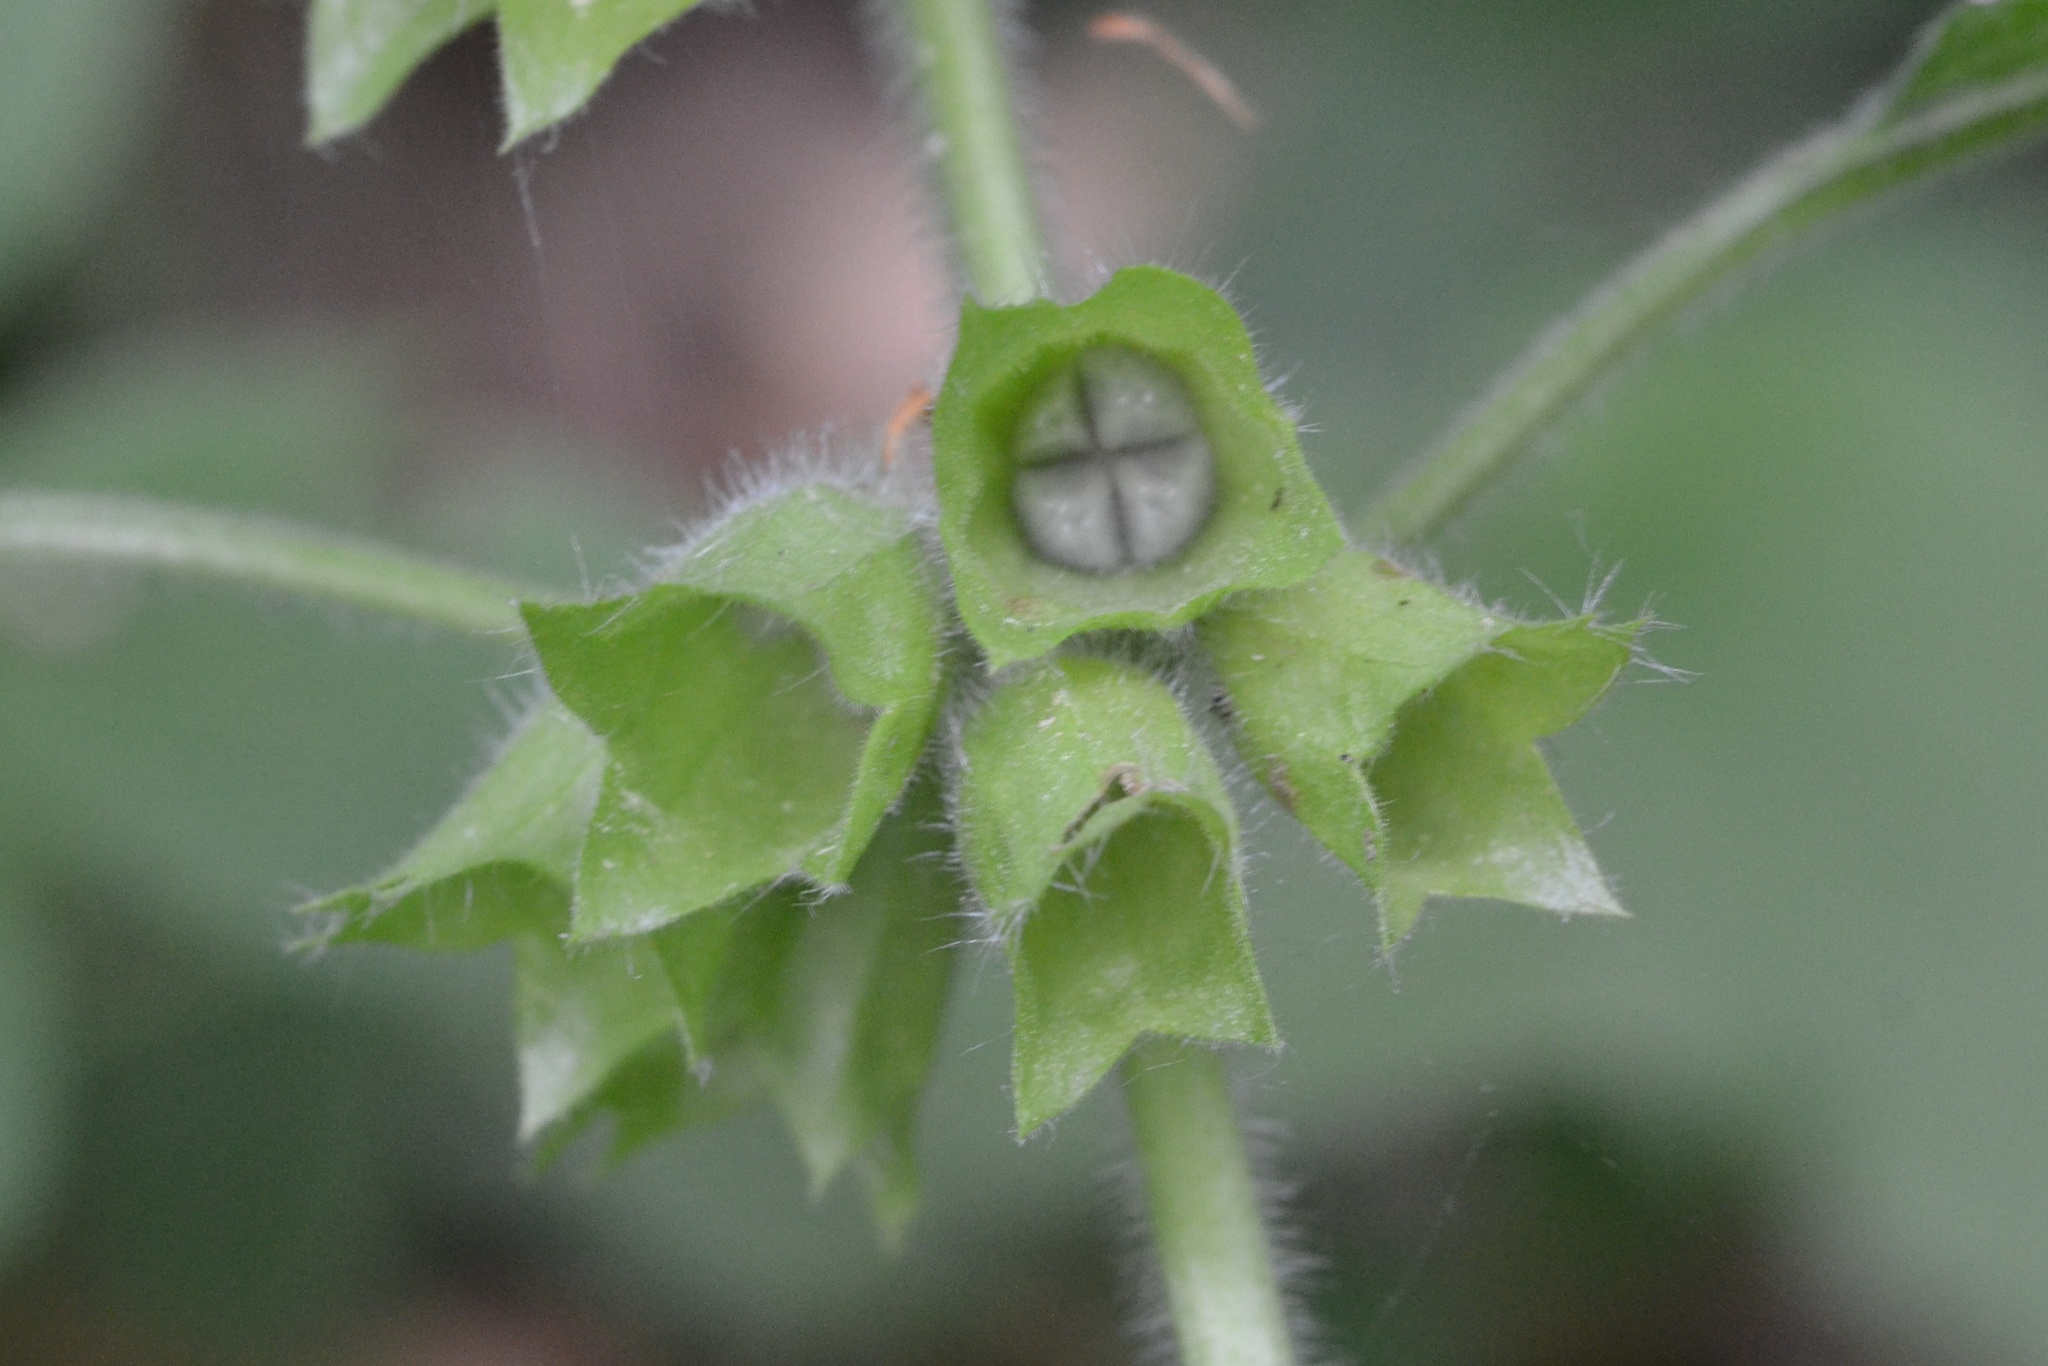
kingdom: Plantae
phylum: Tracheophyta
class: Magnoliopsida
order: Lamiales
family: Lamiaceae
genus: Melittis
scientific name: Melittis melissophyllum
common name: Bastard balm
